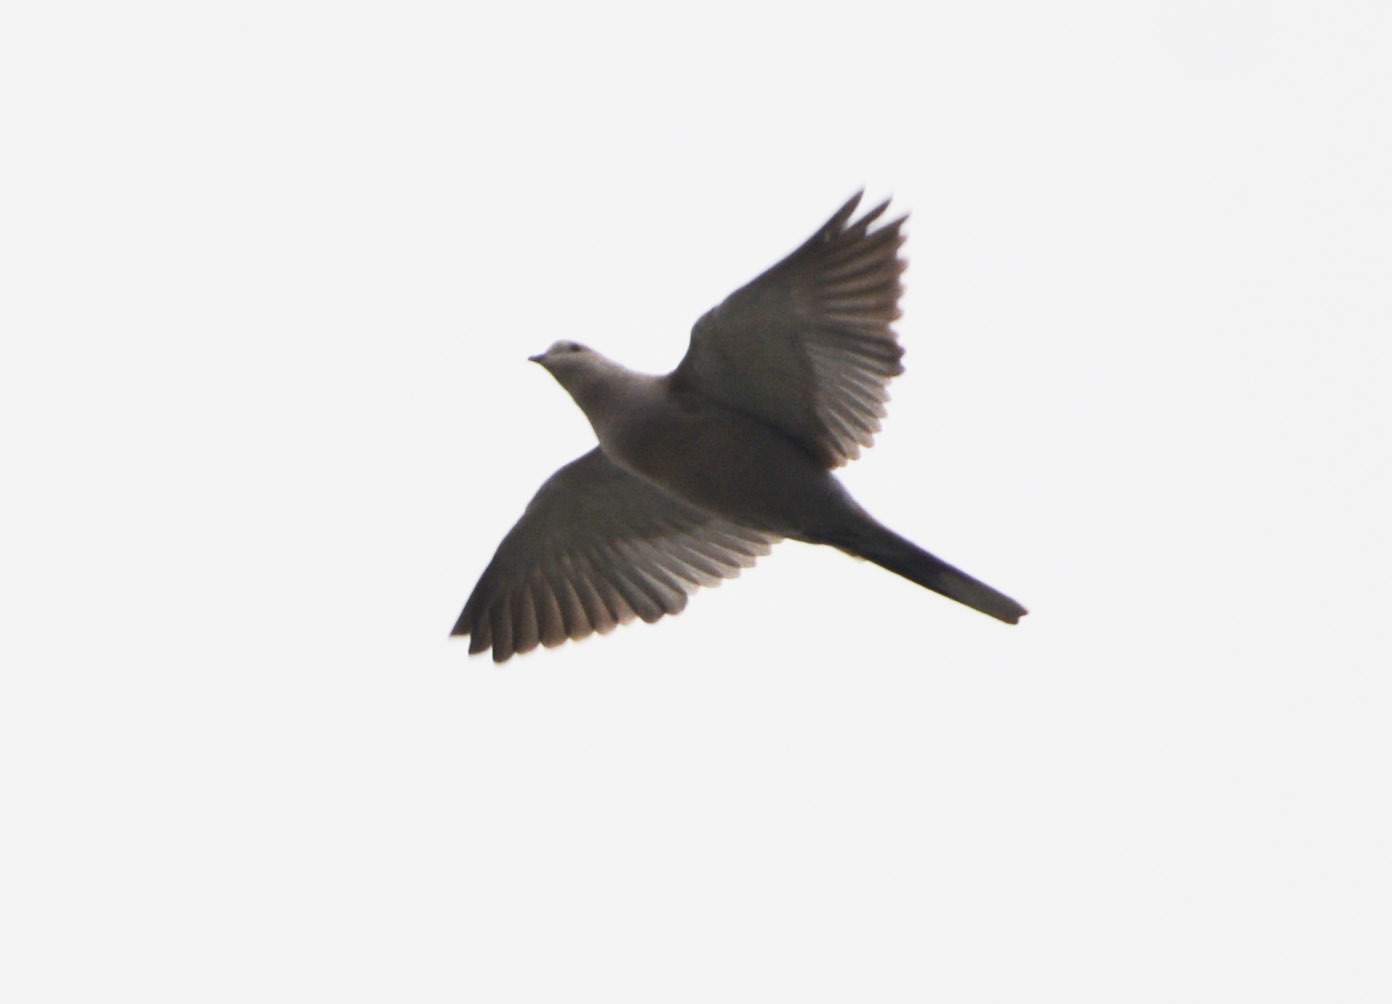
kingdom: Animalia
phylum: Chordata
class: Aves
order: Columbiformes
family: Columbidae
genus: Streptopelia
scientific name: Streptopelia decaocto
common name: Eurasian collared dove
